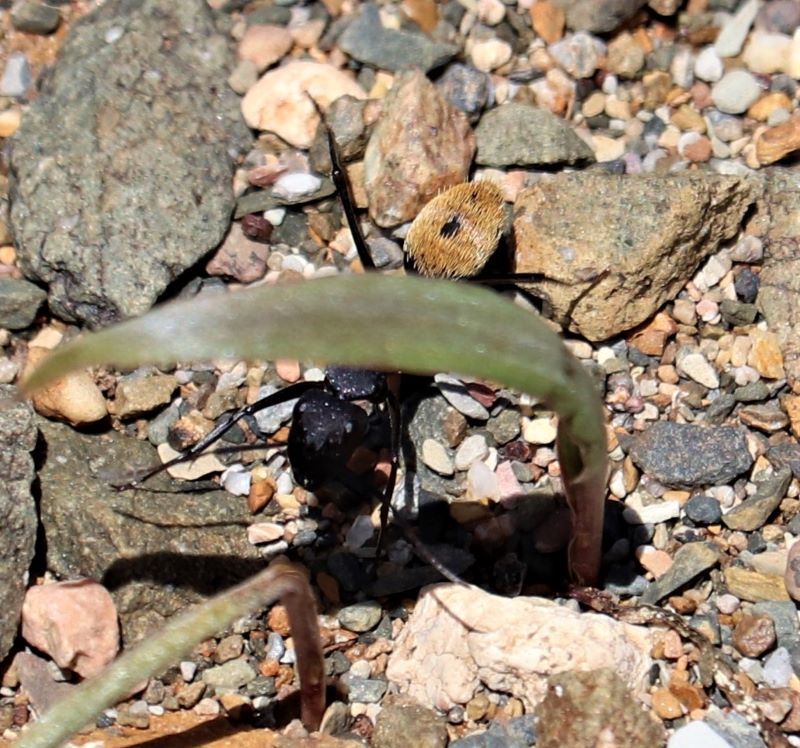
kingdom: Animalia
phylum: Arthropoda
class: Insecta
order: Hymenoptera
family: Formicidae
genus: Camponotus
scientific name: Camponotus fulvopilosus
